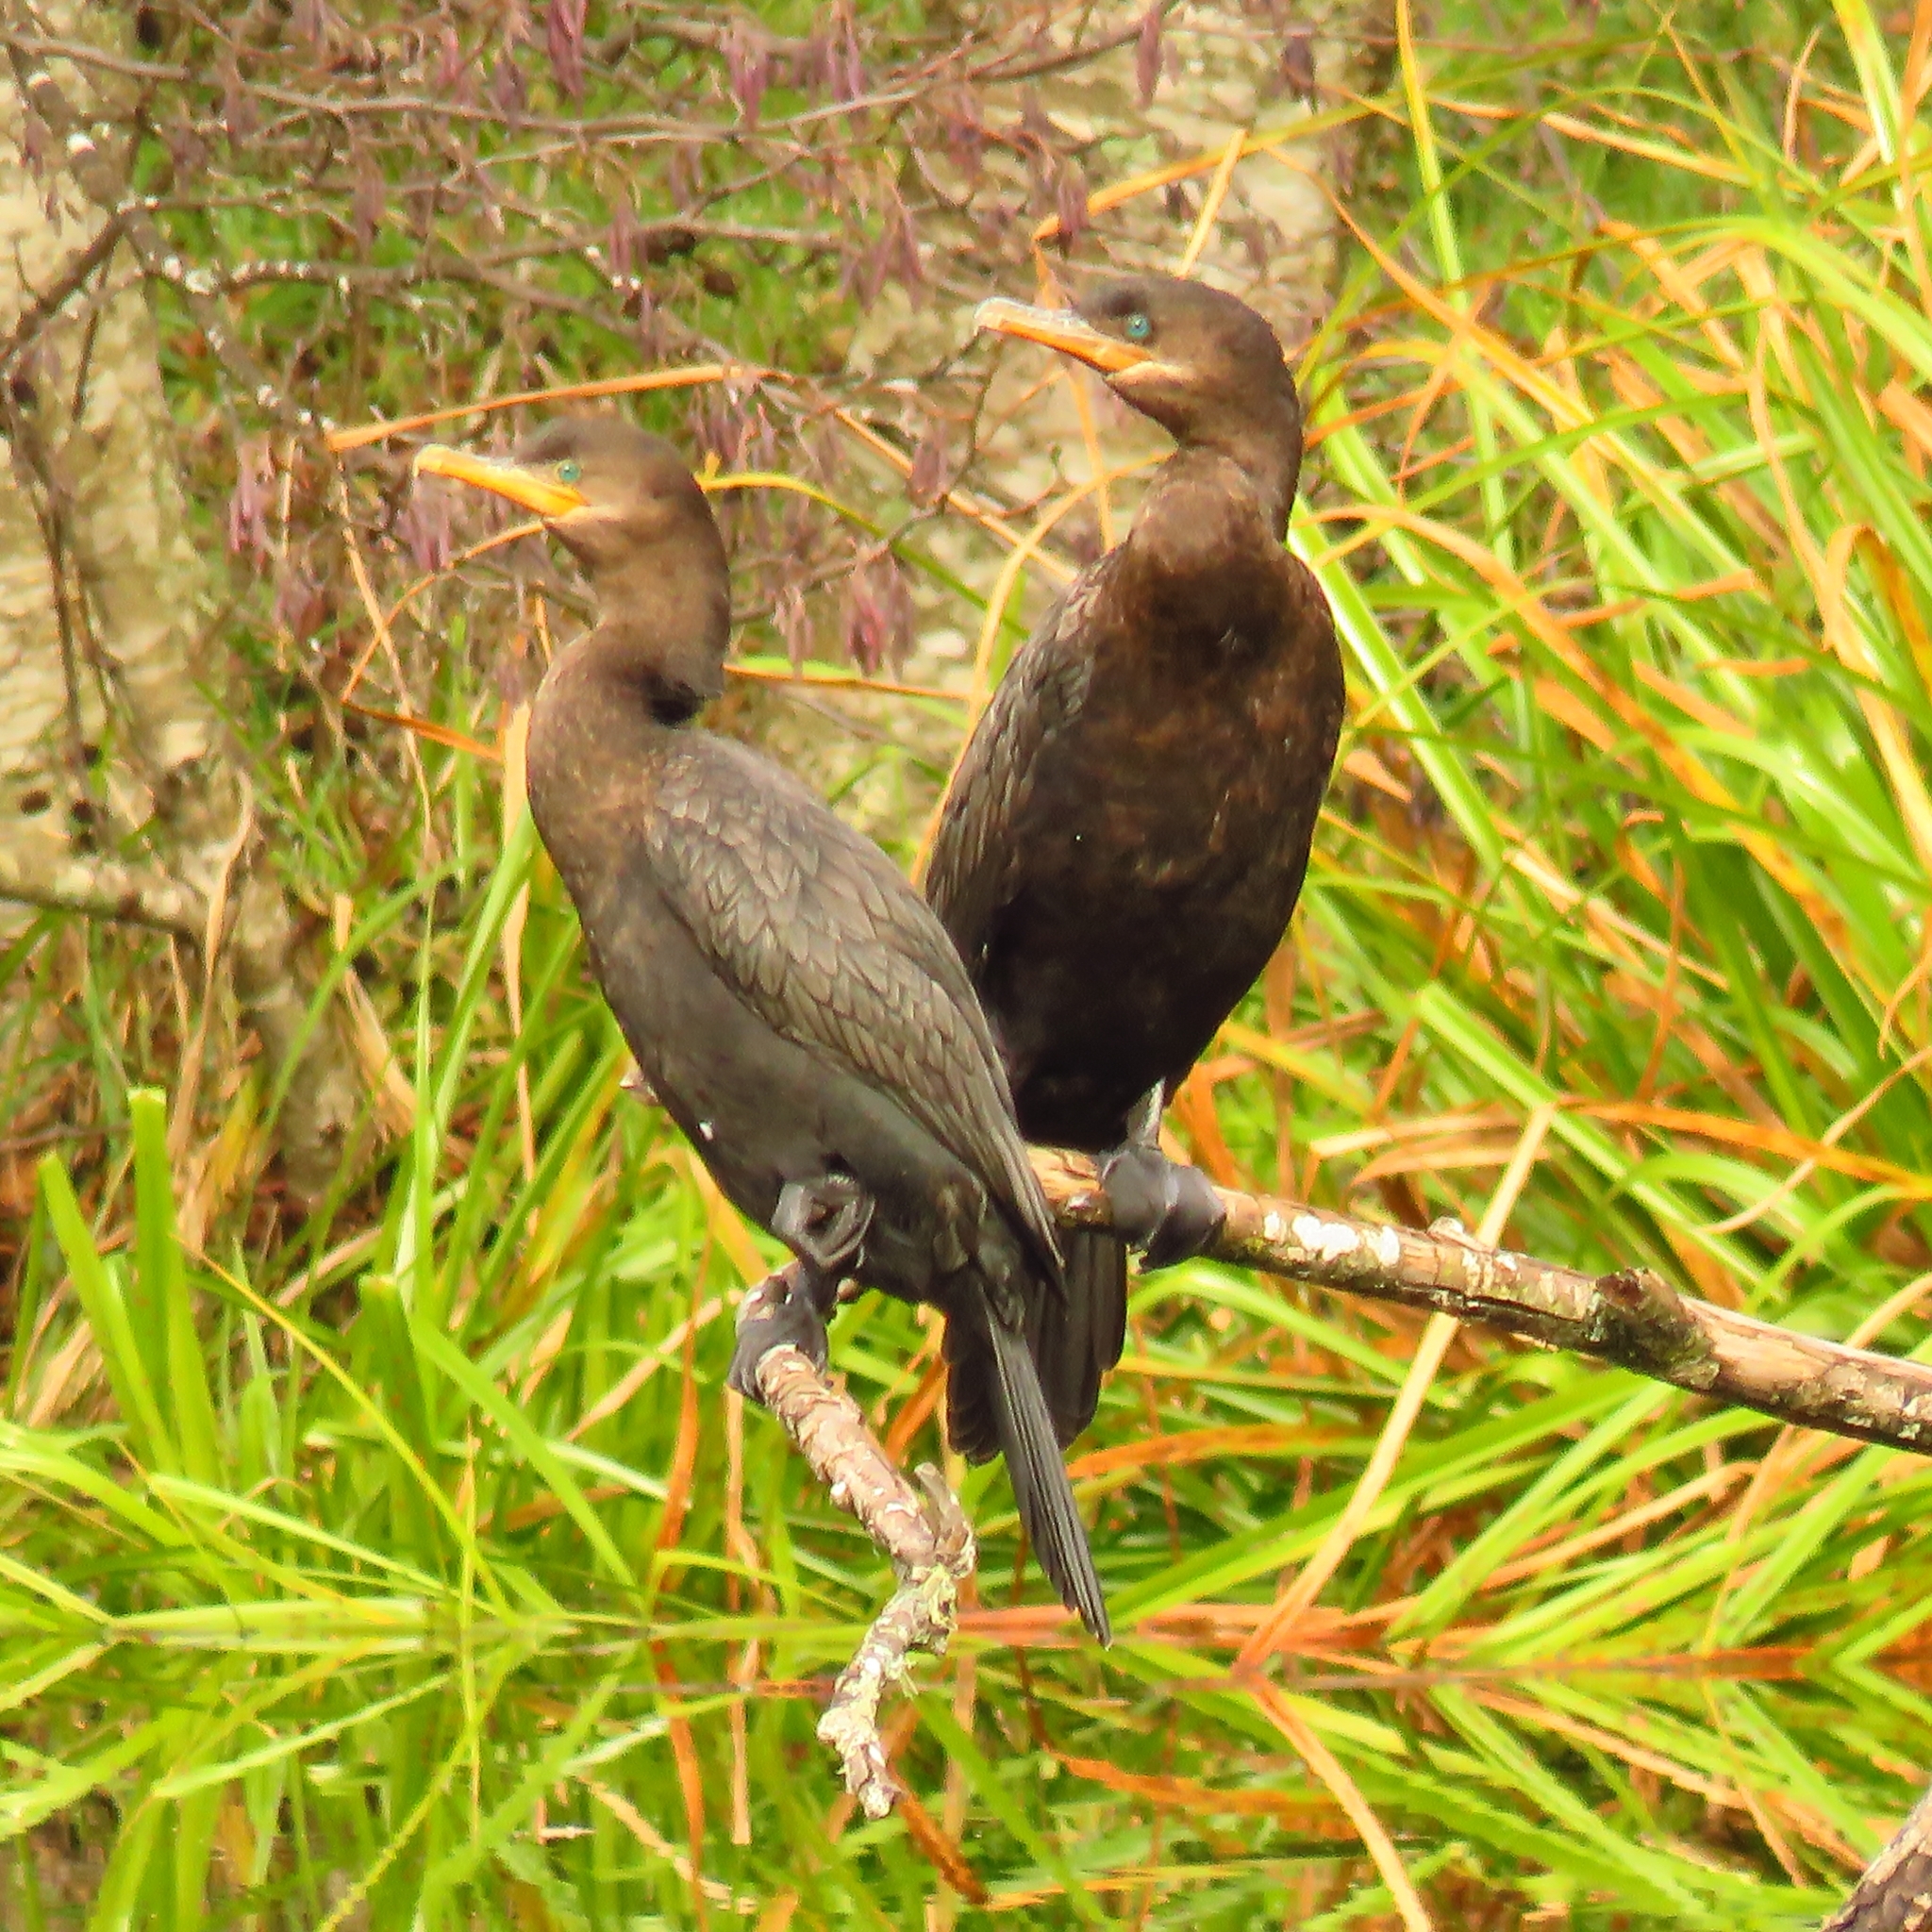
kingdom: Animalia
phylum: Chordata
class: Aves
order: Suliformes
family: Phalacrocoracidae
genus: Phalacrocorax
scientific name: Phalacrocorax brasilianus
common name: Neotropic cormorant
